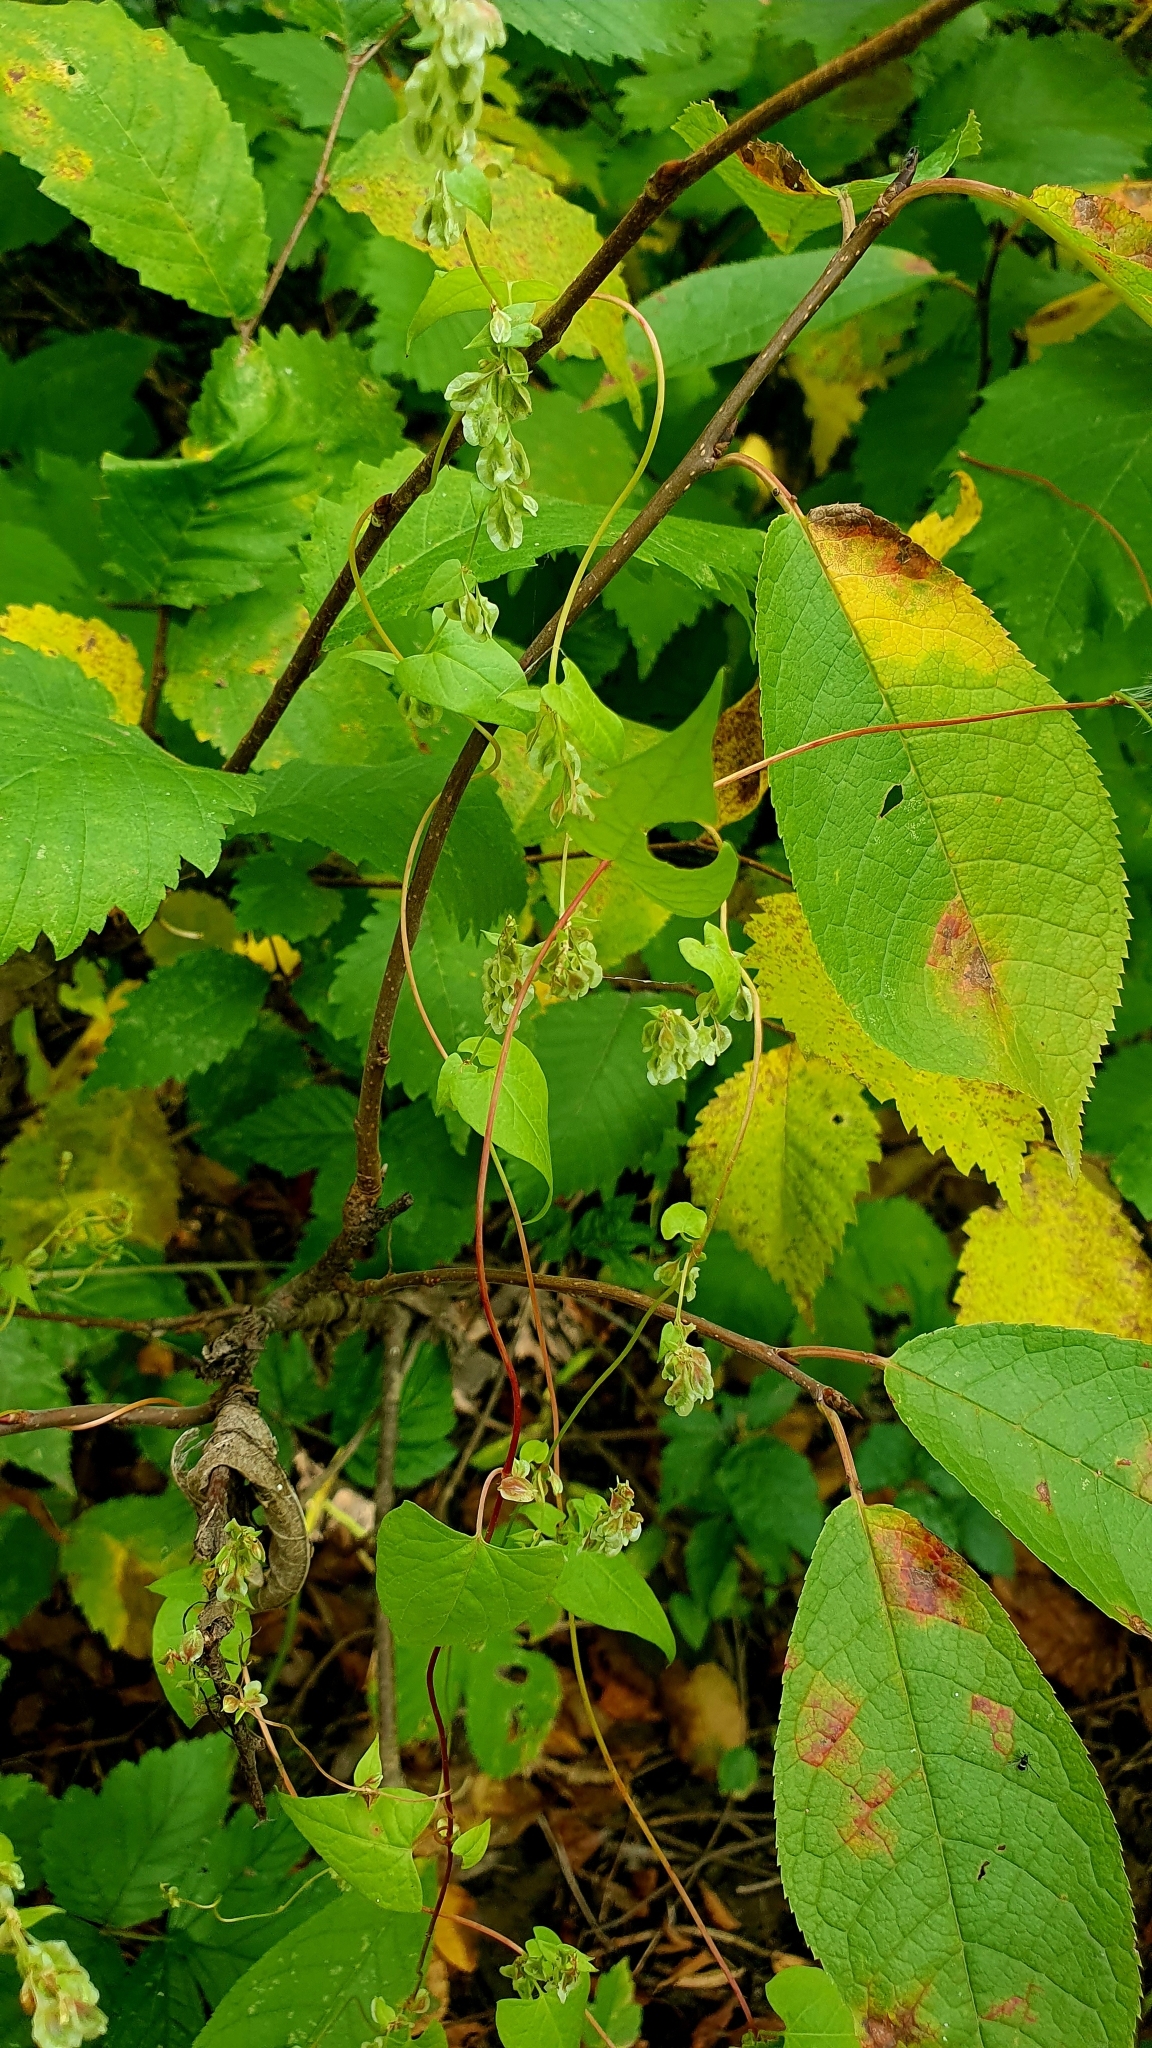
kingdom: Plantae
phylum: Tracheophyta
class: Magnoliopsida
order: Caryophyllales
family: Polygonaceae
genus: Fallopia
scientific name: Fallopia dumetorum
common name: Copse-bindweed
